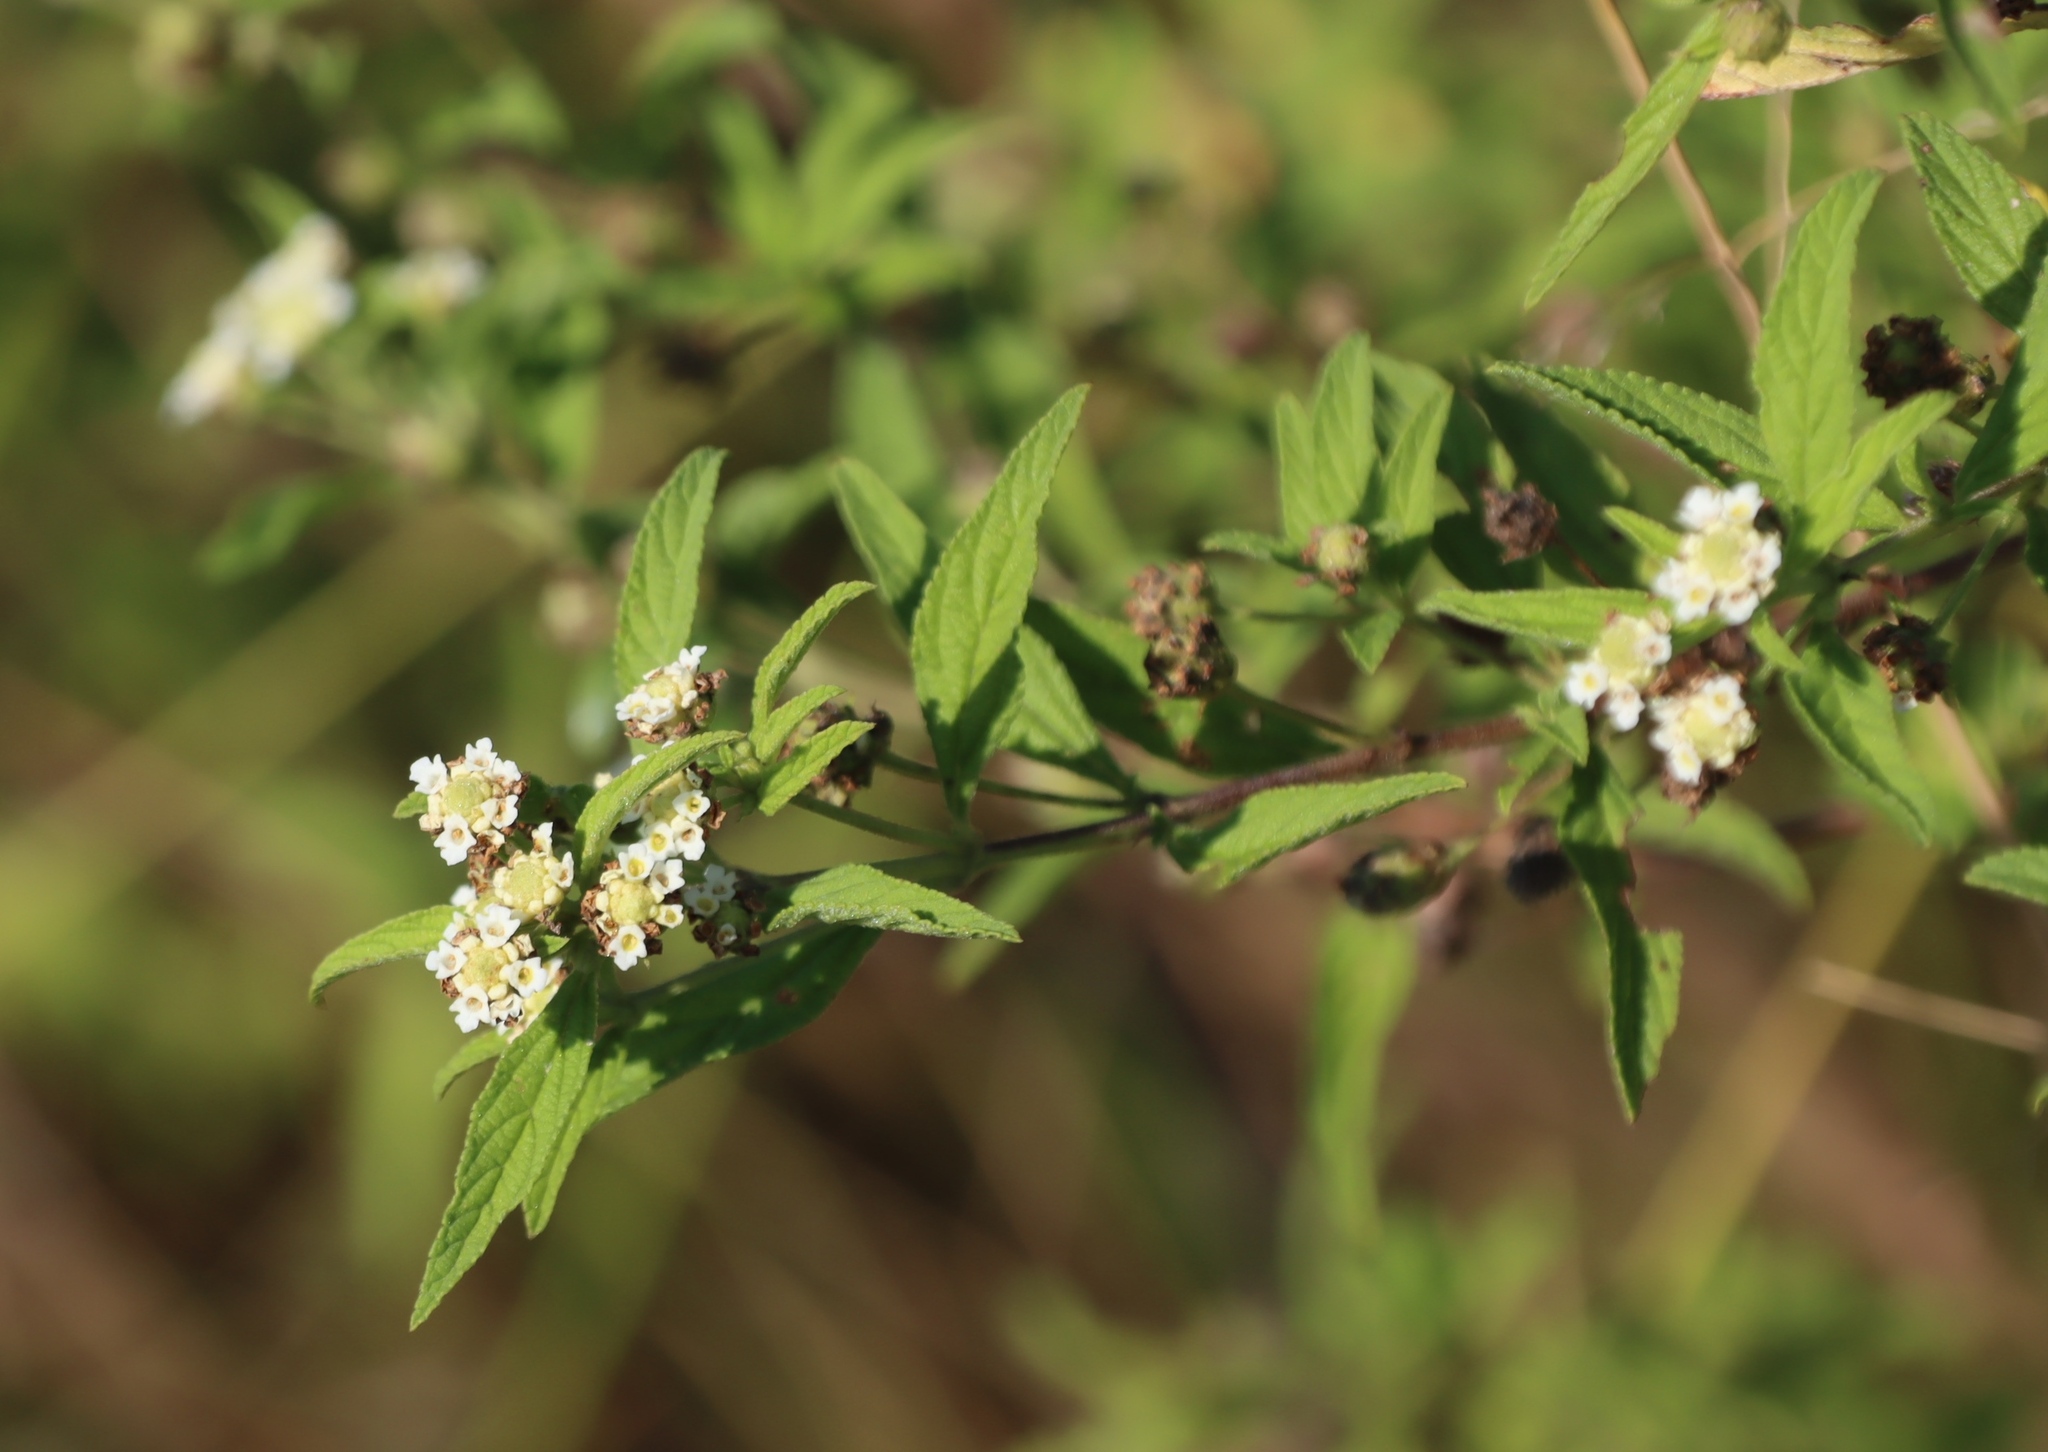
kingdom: Plantae
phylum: Tracheophyta
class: Magnoliopsida
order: Lamiales
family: Verbenaceae
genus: Lippia
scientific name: Lippia javanica
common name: Lemonbush
